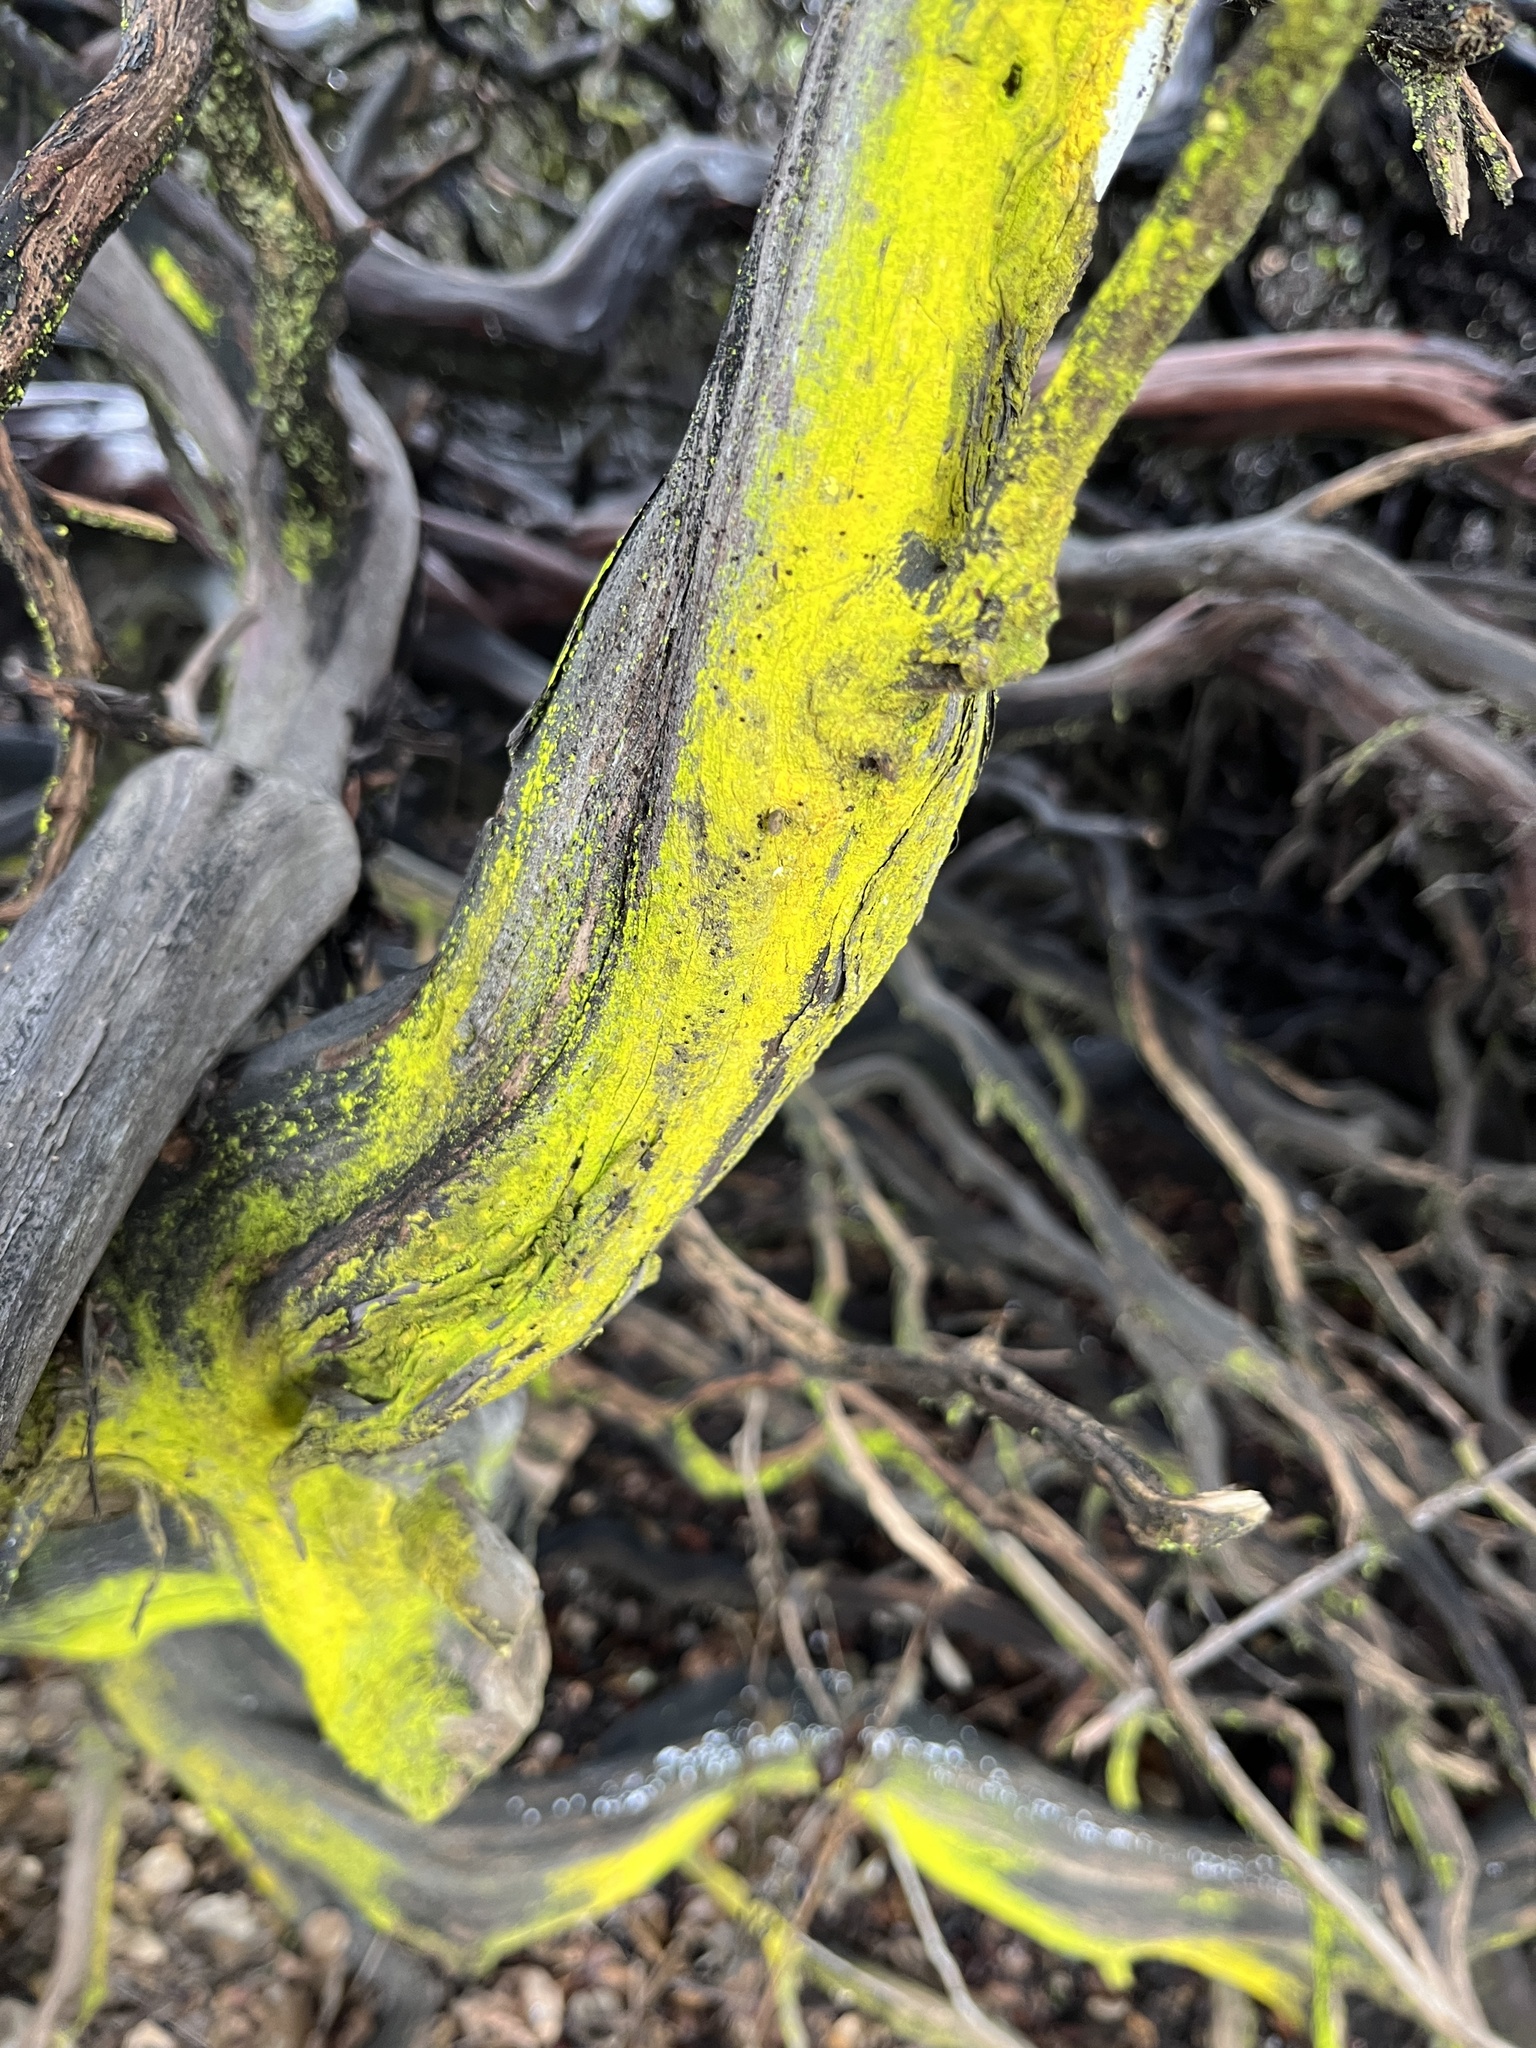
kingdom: Plantae
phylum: Tracheophyta
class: Magnoliopsida
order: Ericales
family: Ericaceae
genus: Arctostaphylos
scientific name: Arctostaphylos pajaroensis
